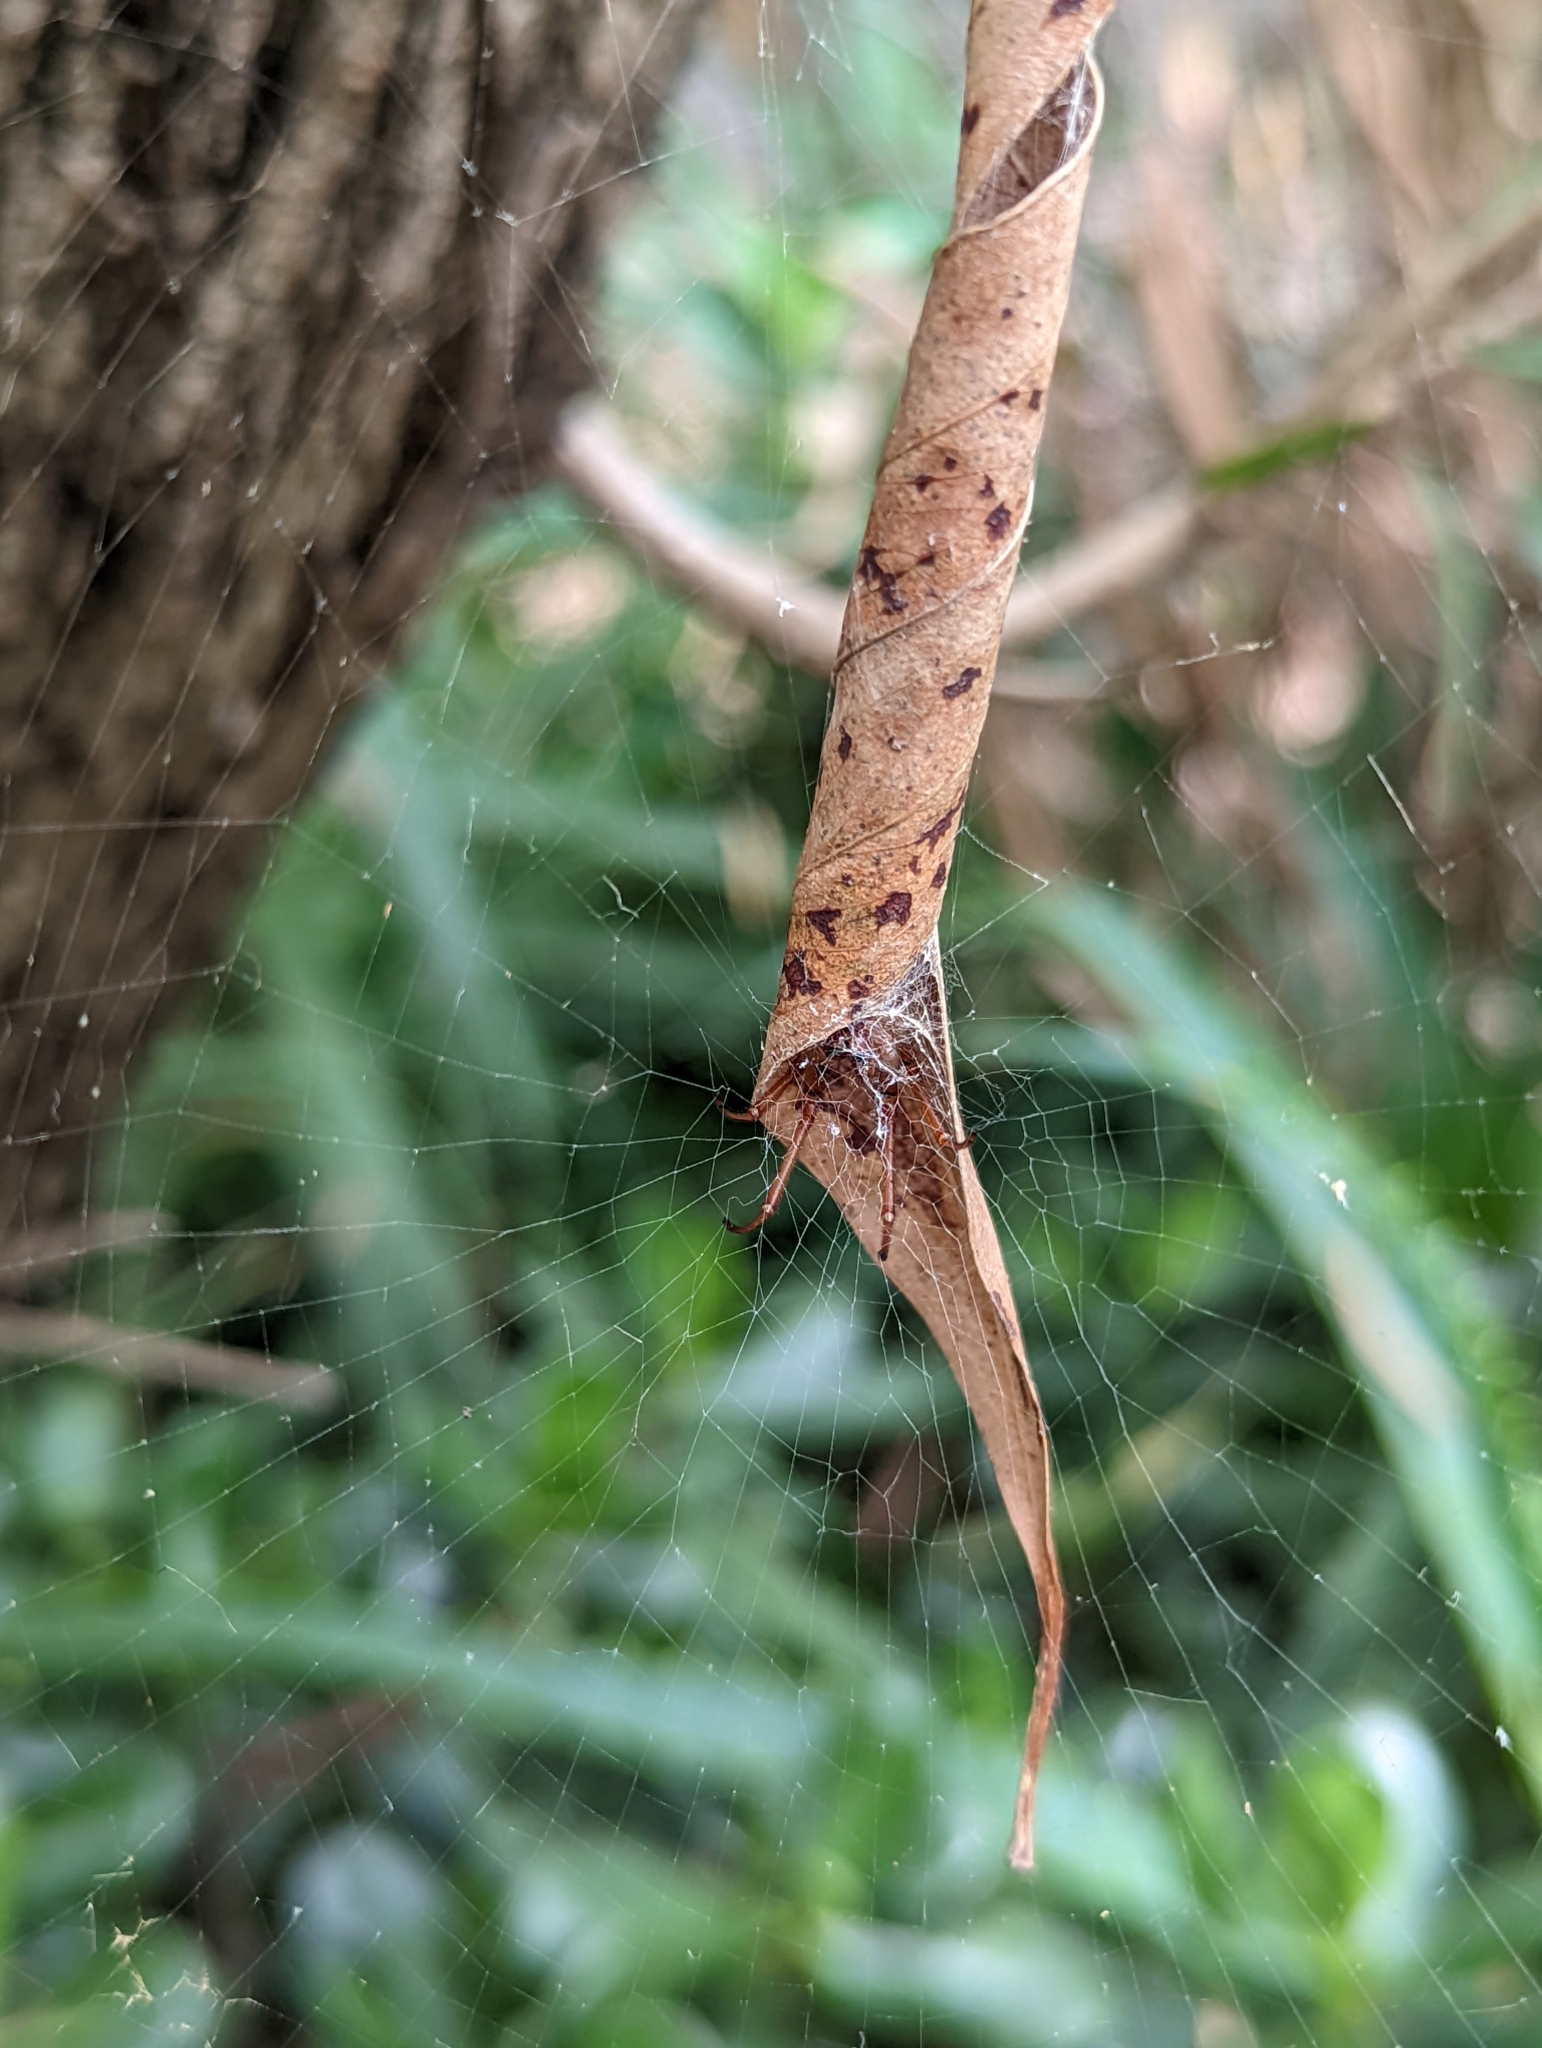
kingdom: Animalia
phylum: Arthropoda
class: Arachnida
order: Araneae
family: Araneidae
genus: Phonognatha
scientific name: Phonognatha graeffei
